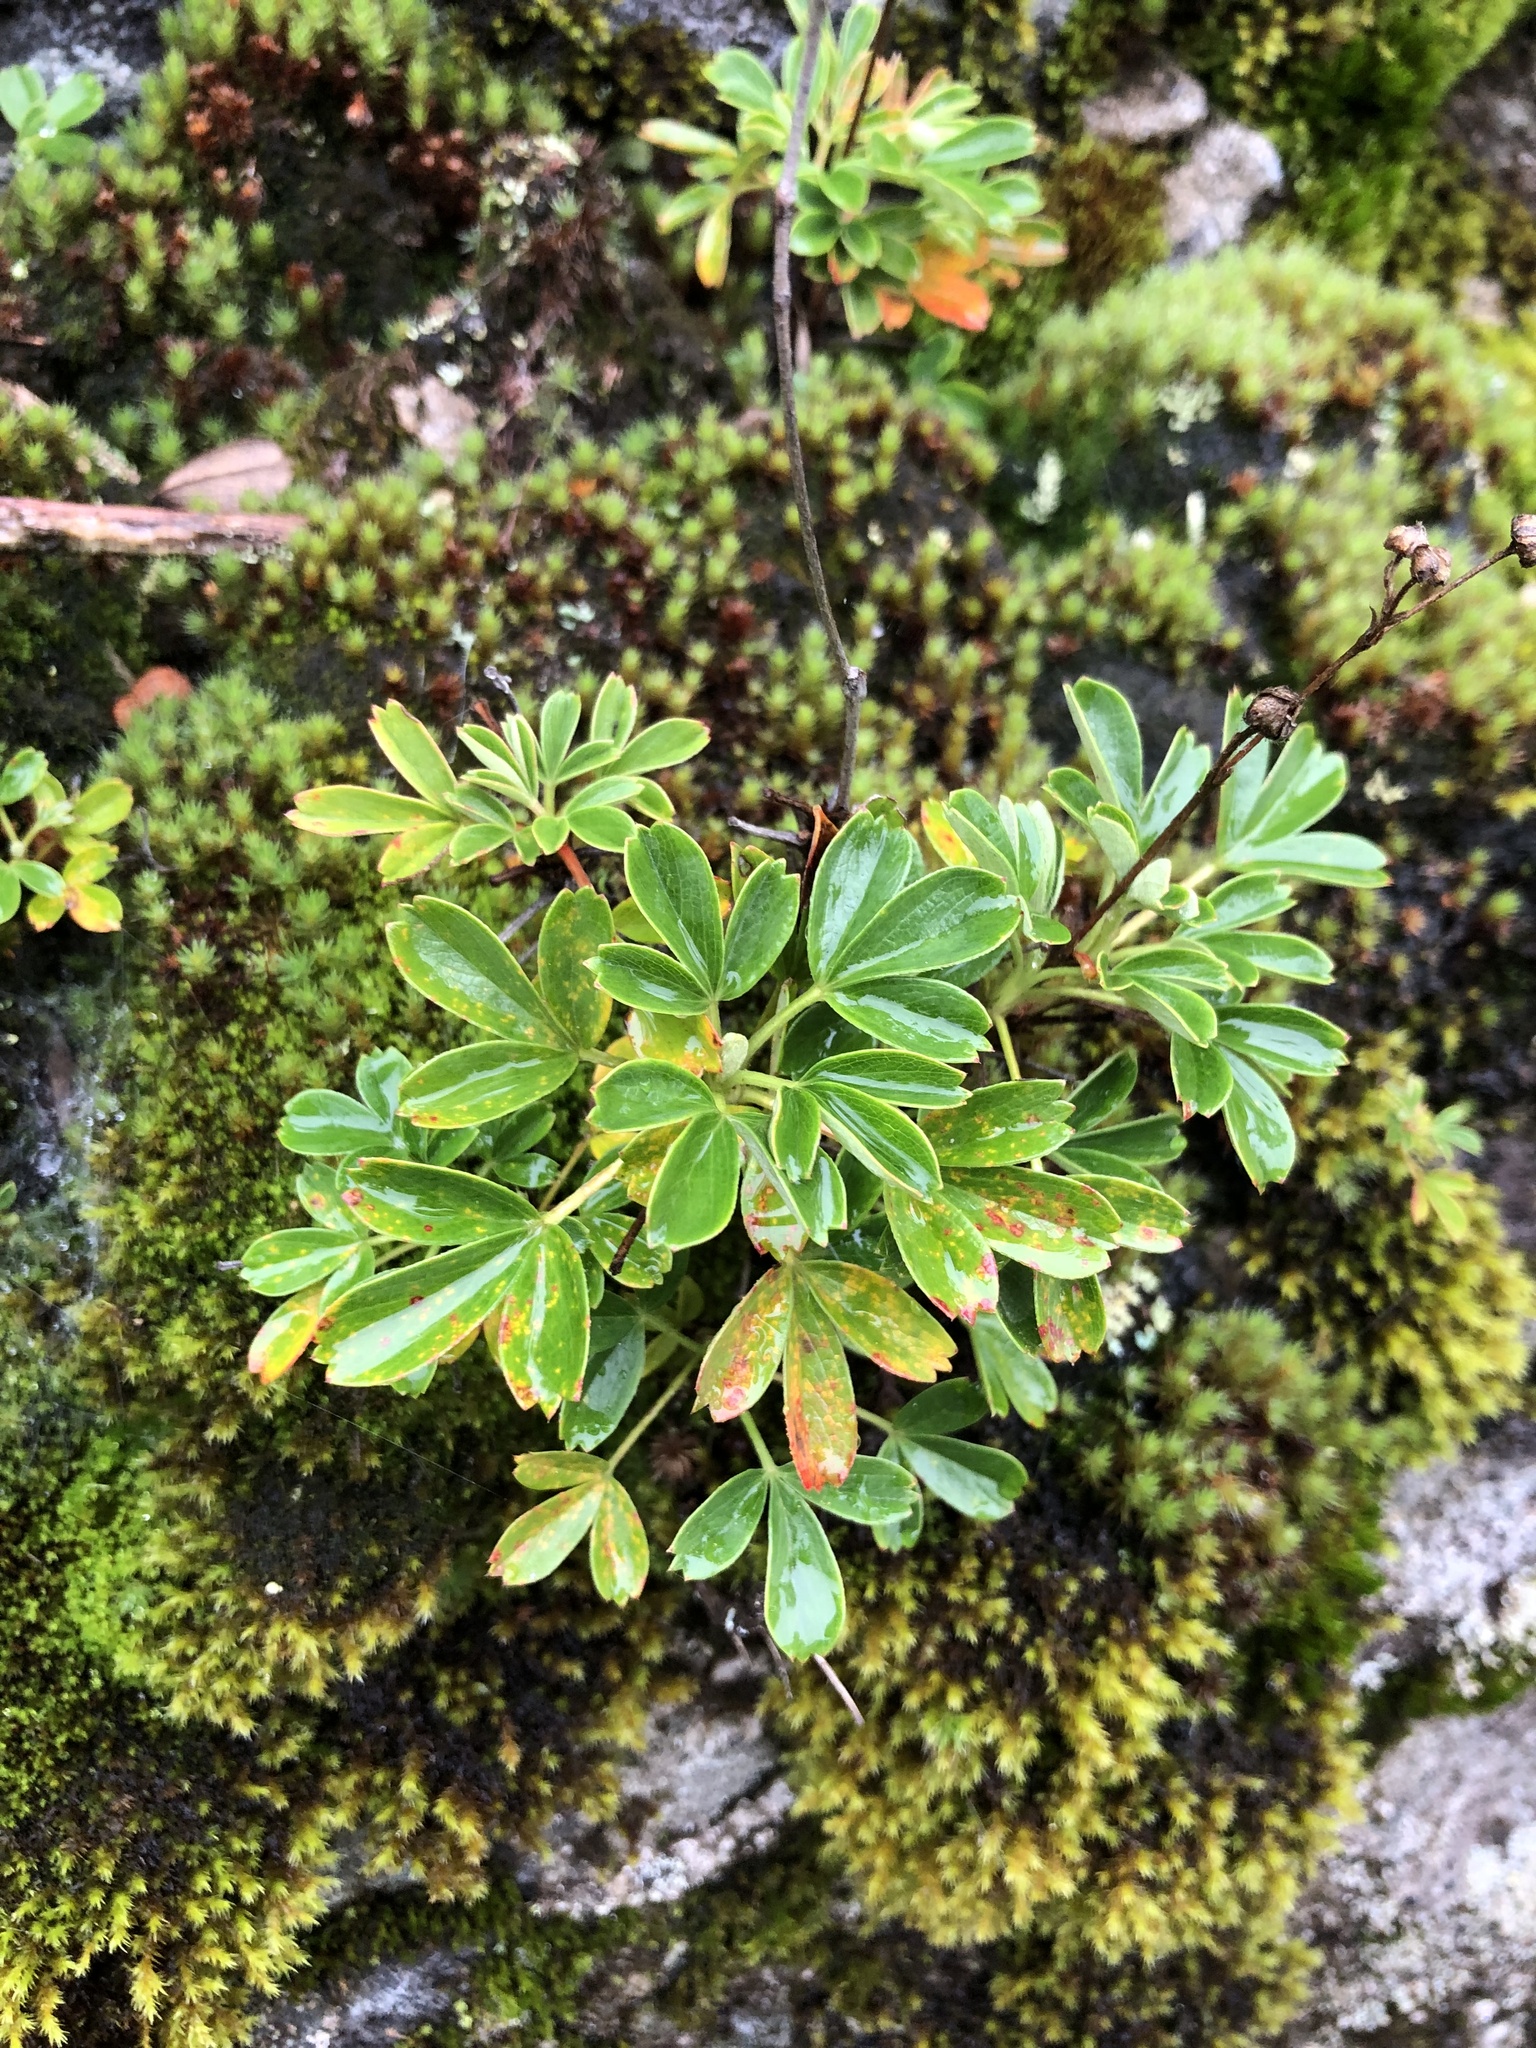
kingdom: Plantae
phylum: Tracheophyta
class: Magnoliopsida
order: Rosales
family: Rosaceae
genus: Sibbaldia
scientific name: Sibbaldia tridentata
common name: Three-toothed cinquefoil
